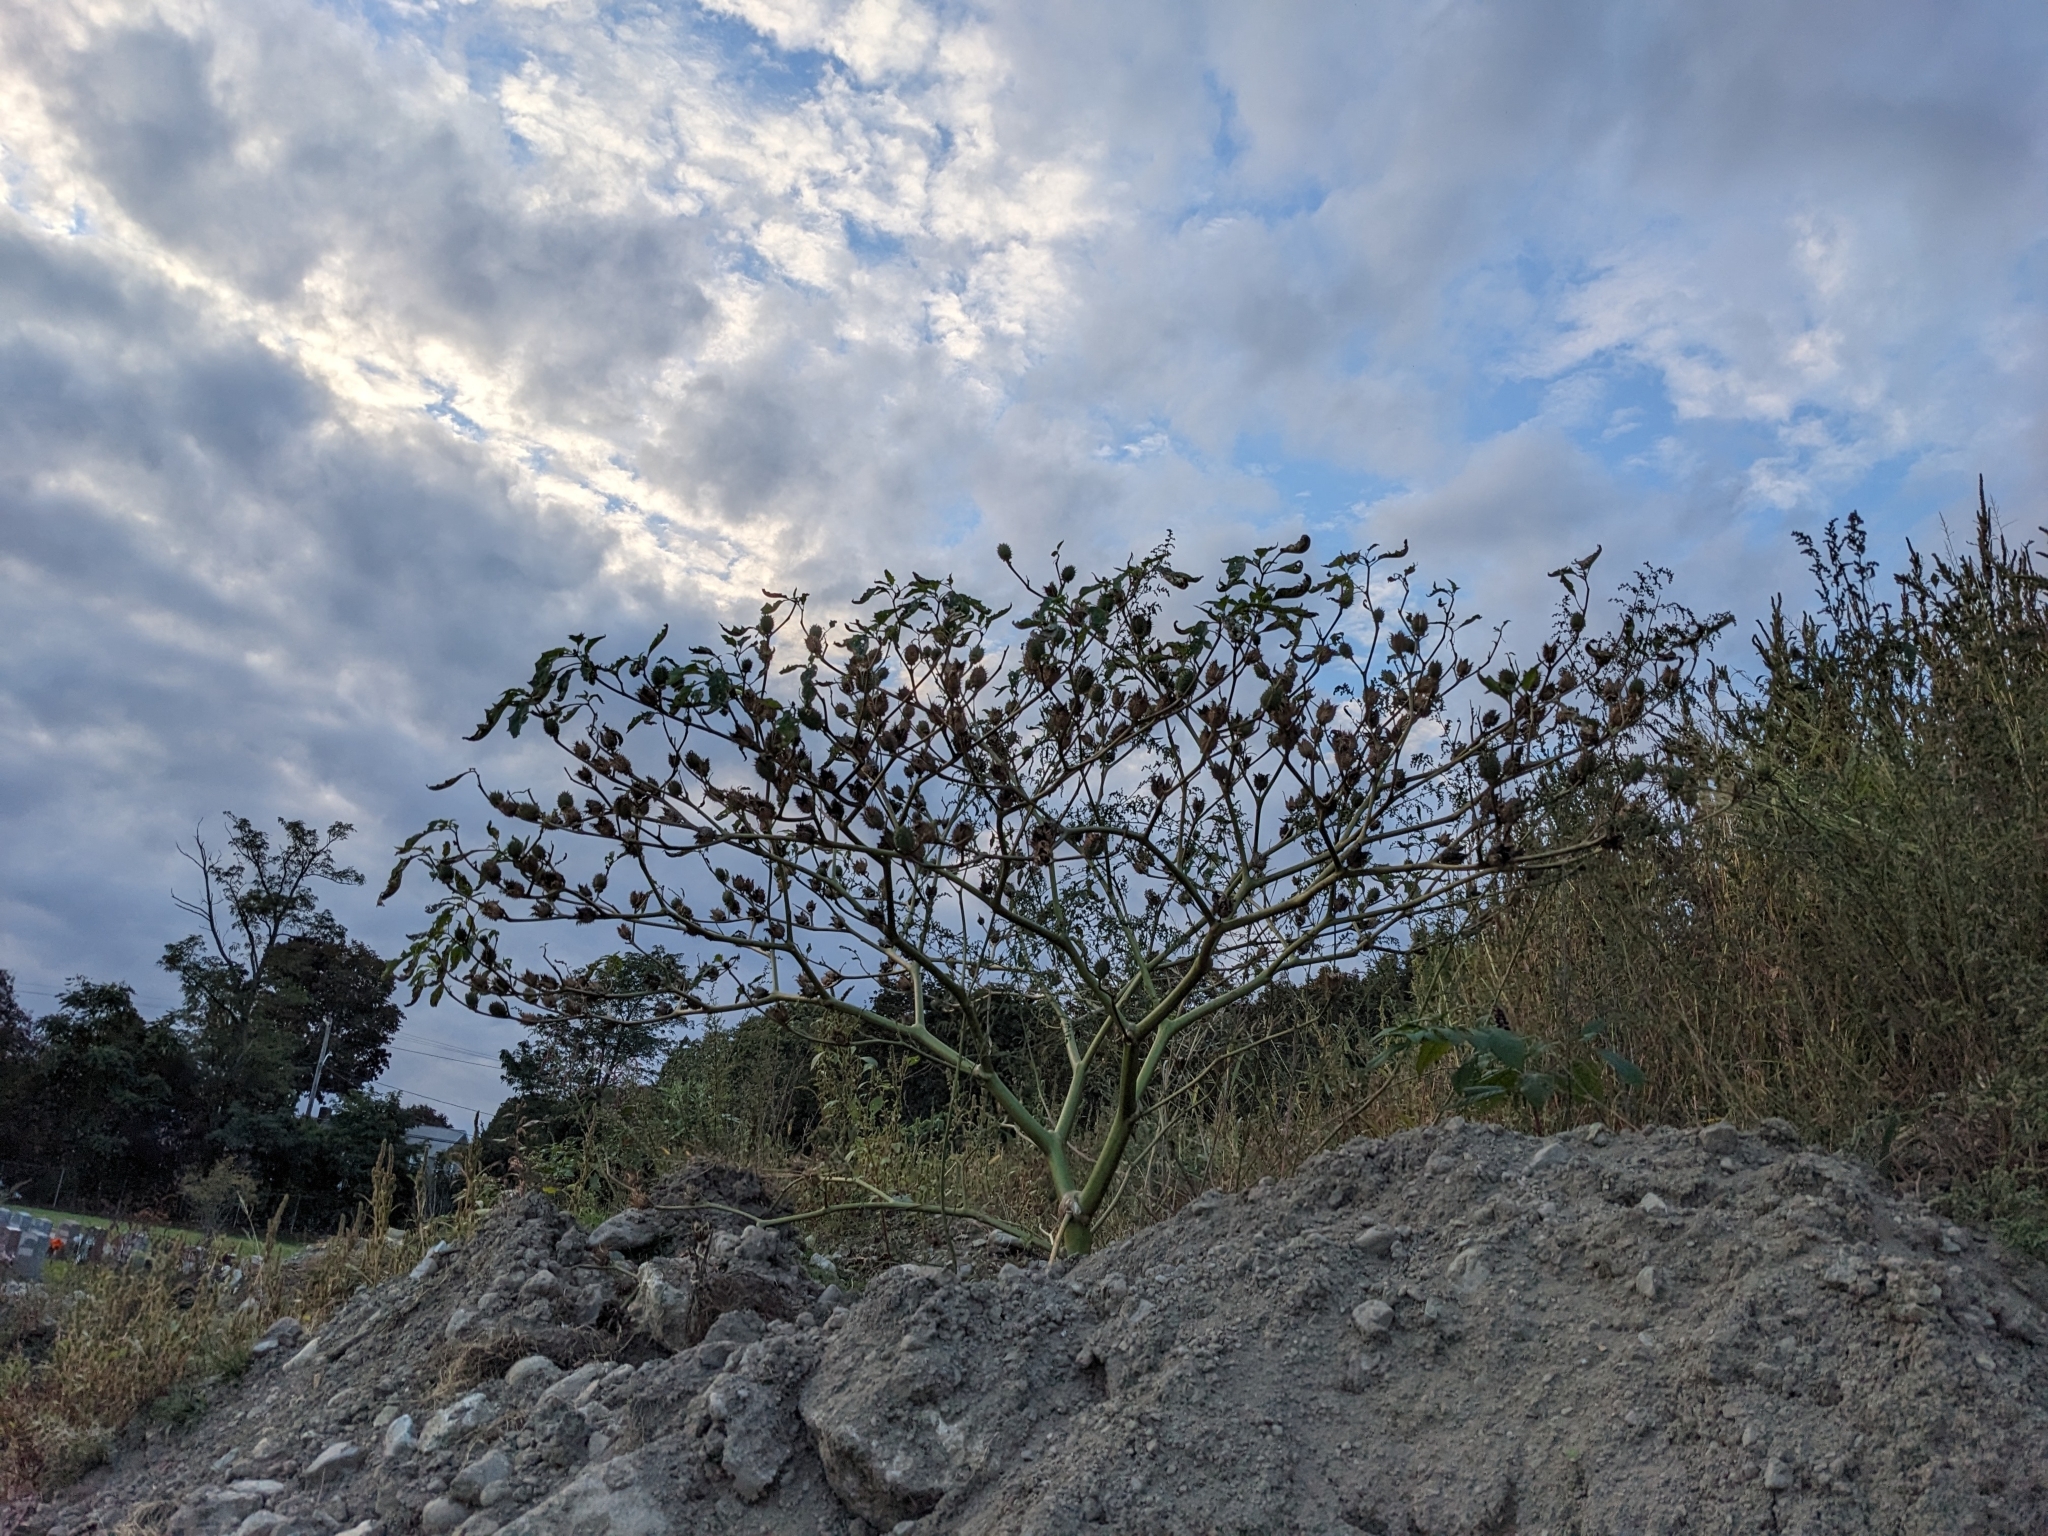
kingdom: Plantae
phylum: Tracheophyta
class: Magnoliopsida
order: Solanales
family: Solanaceae
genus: Datura
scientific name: Datura stramonium
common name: Thorn-apple
